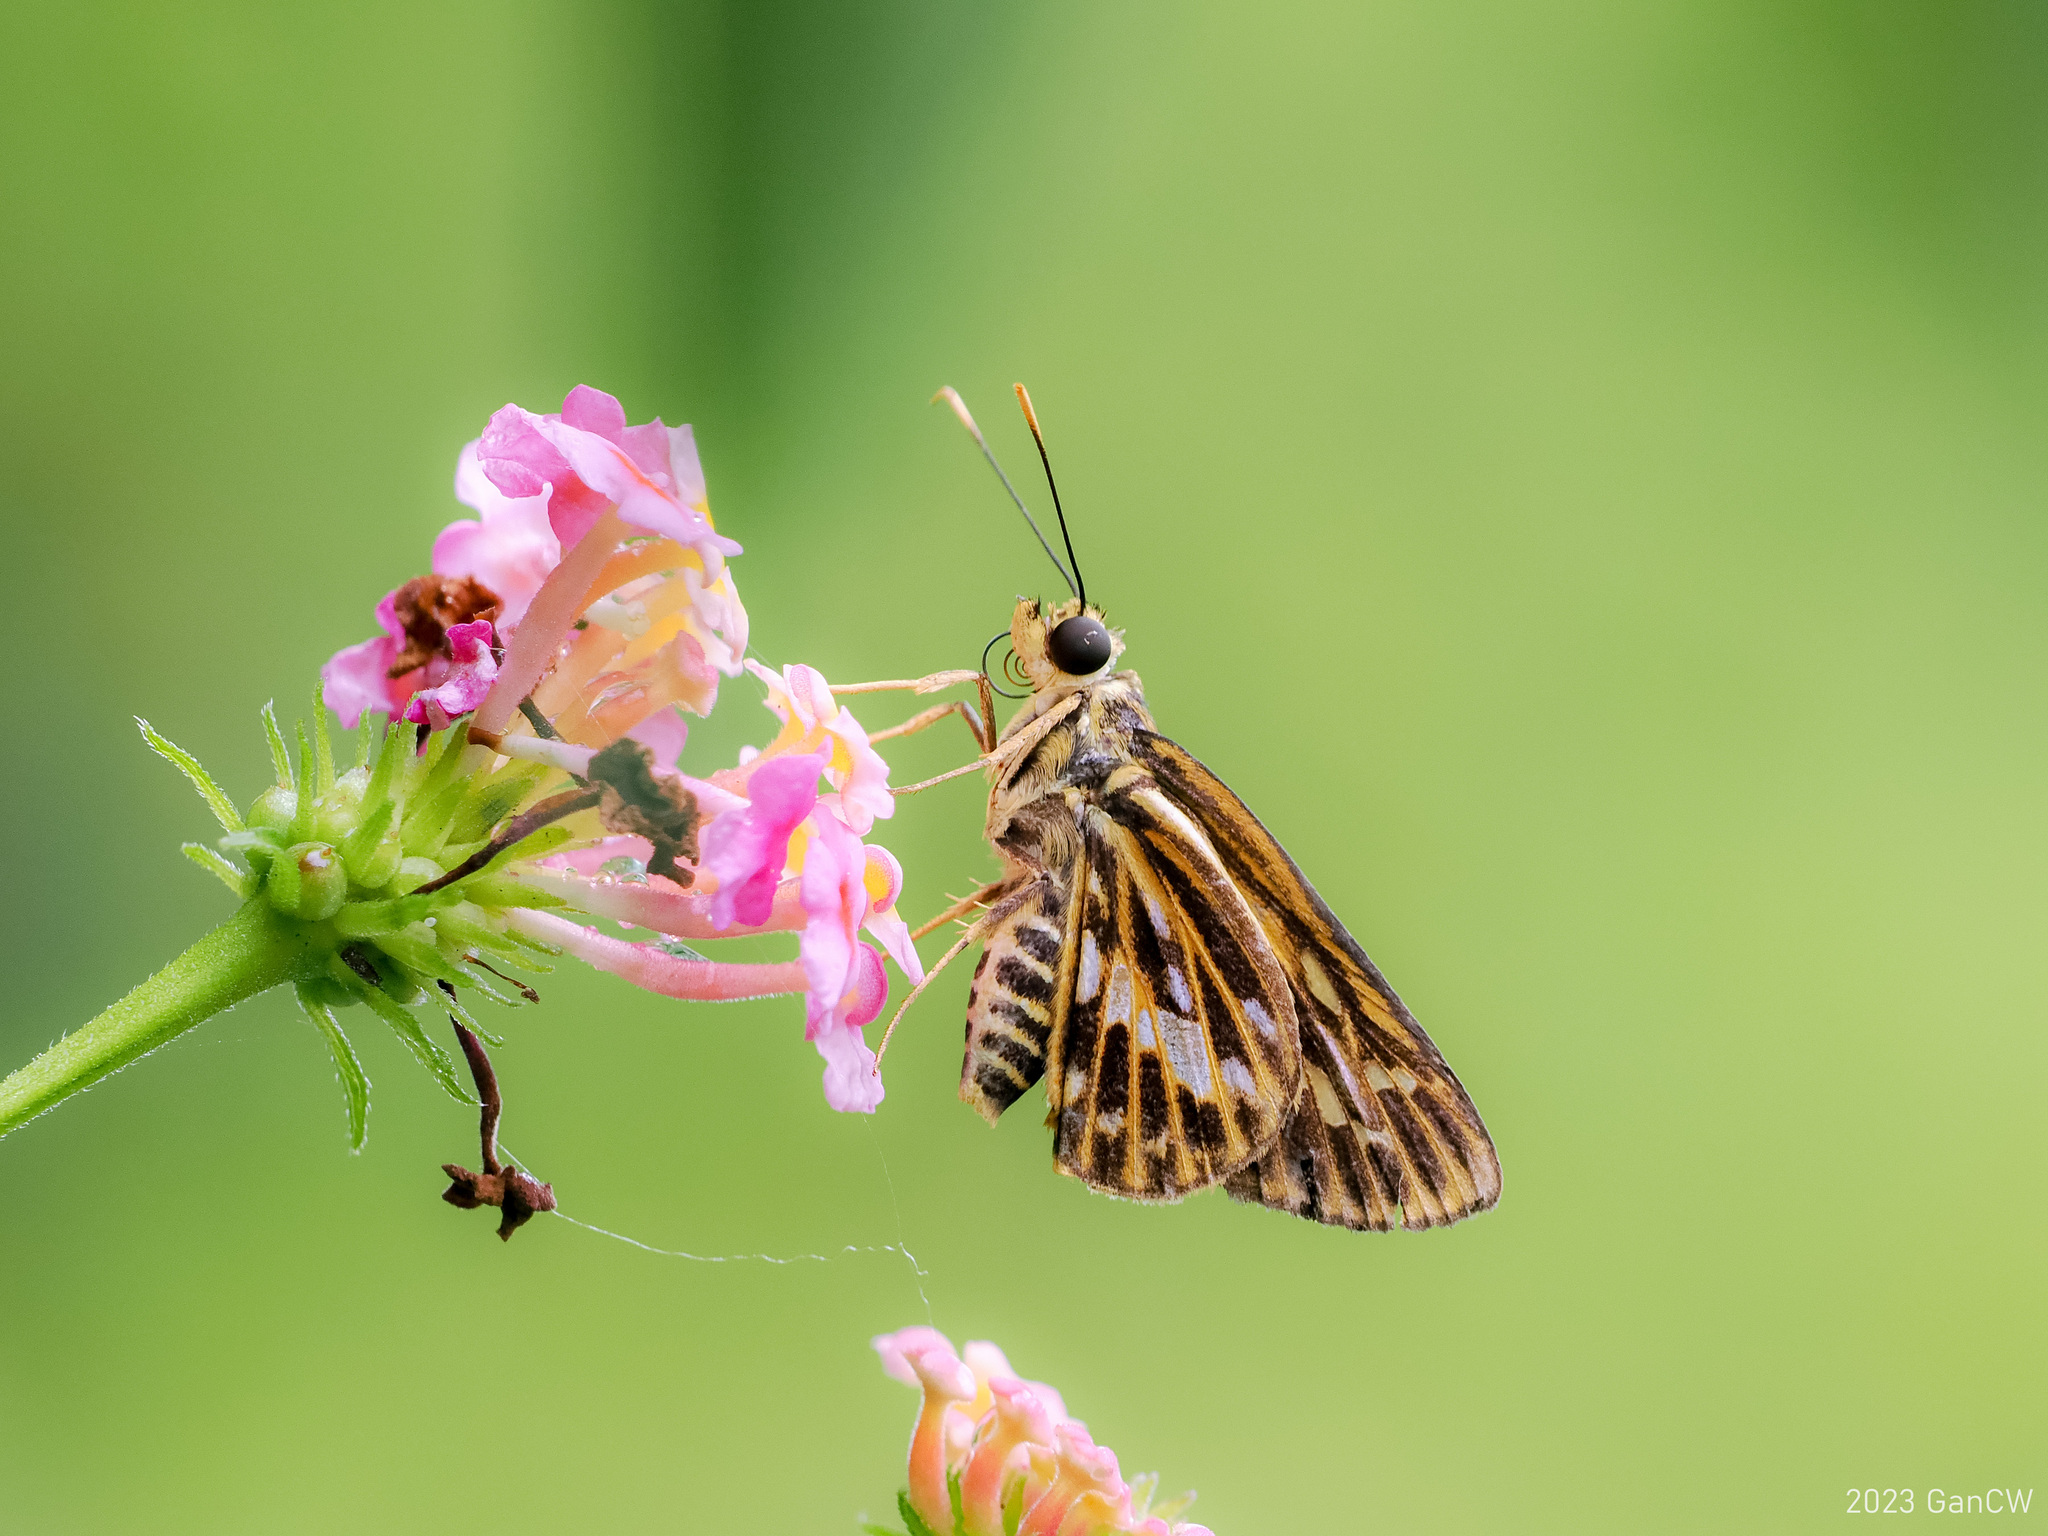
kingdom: Animalia
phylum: Arthropoda
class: Insecta
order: Lepidoptera
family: Hesperiidae
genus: Pyroneura
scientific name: Pyroneura latoia
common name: Yellow vein lancer
